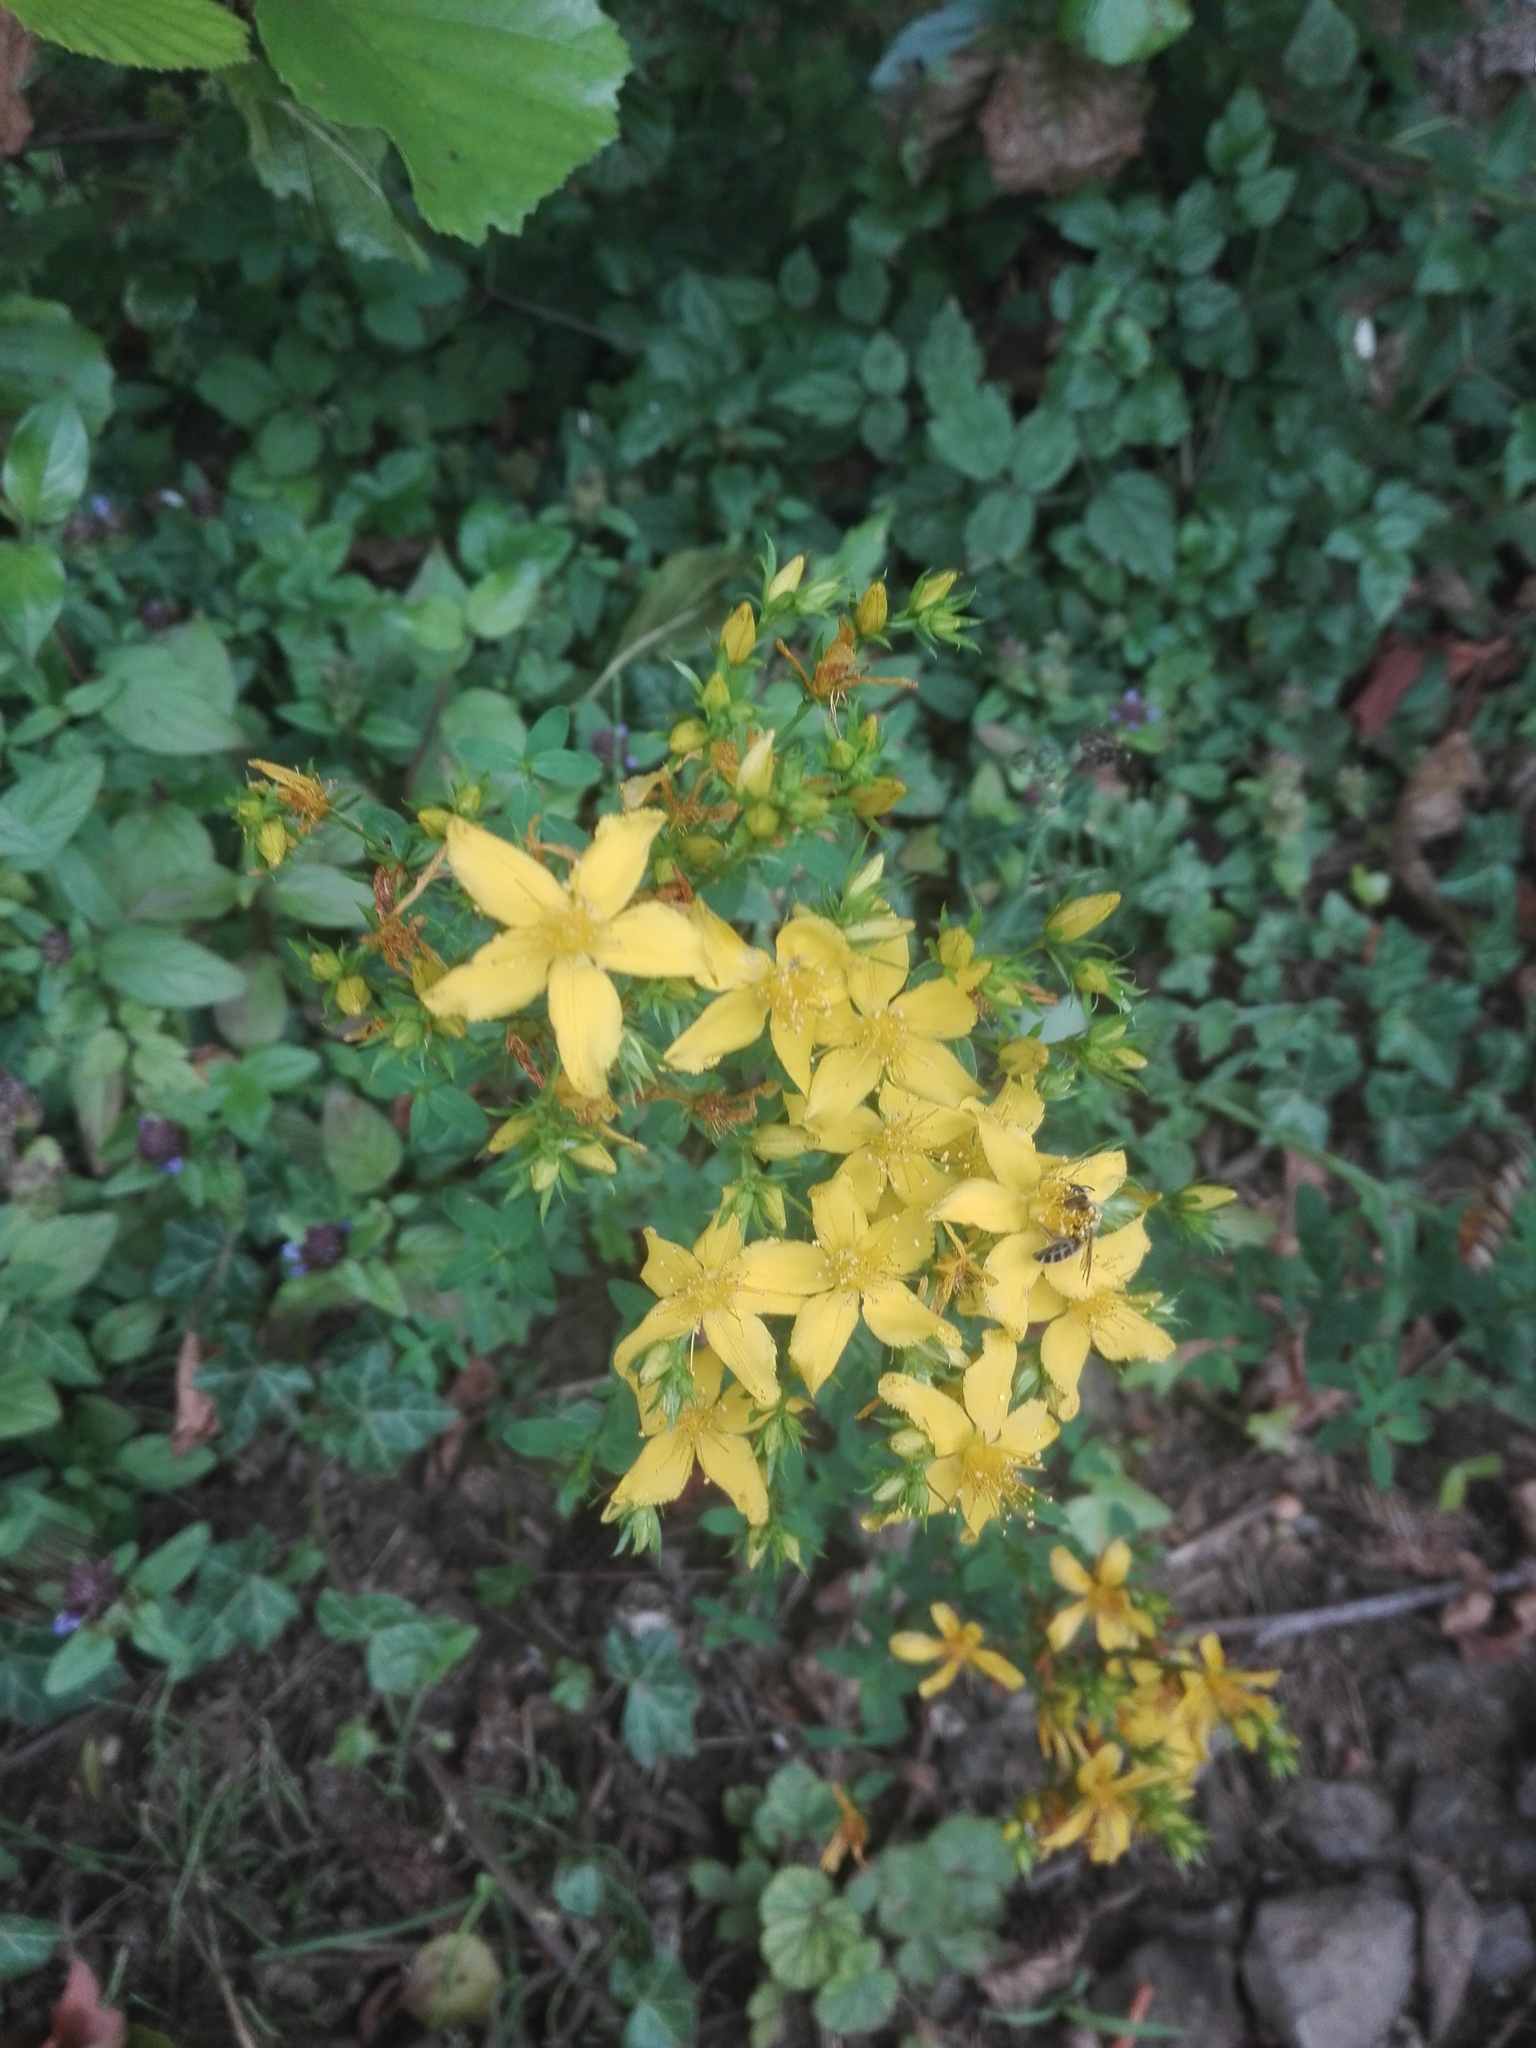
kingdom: Plantae
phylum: Tracheophyta
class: Magnoliopsida
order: Malpighiales
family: Hypericaceae
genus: Hypericum
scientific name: Hypericum perforatum
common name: Common st. johnswort
